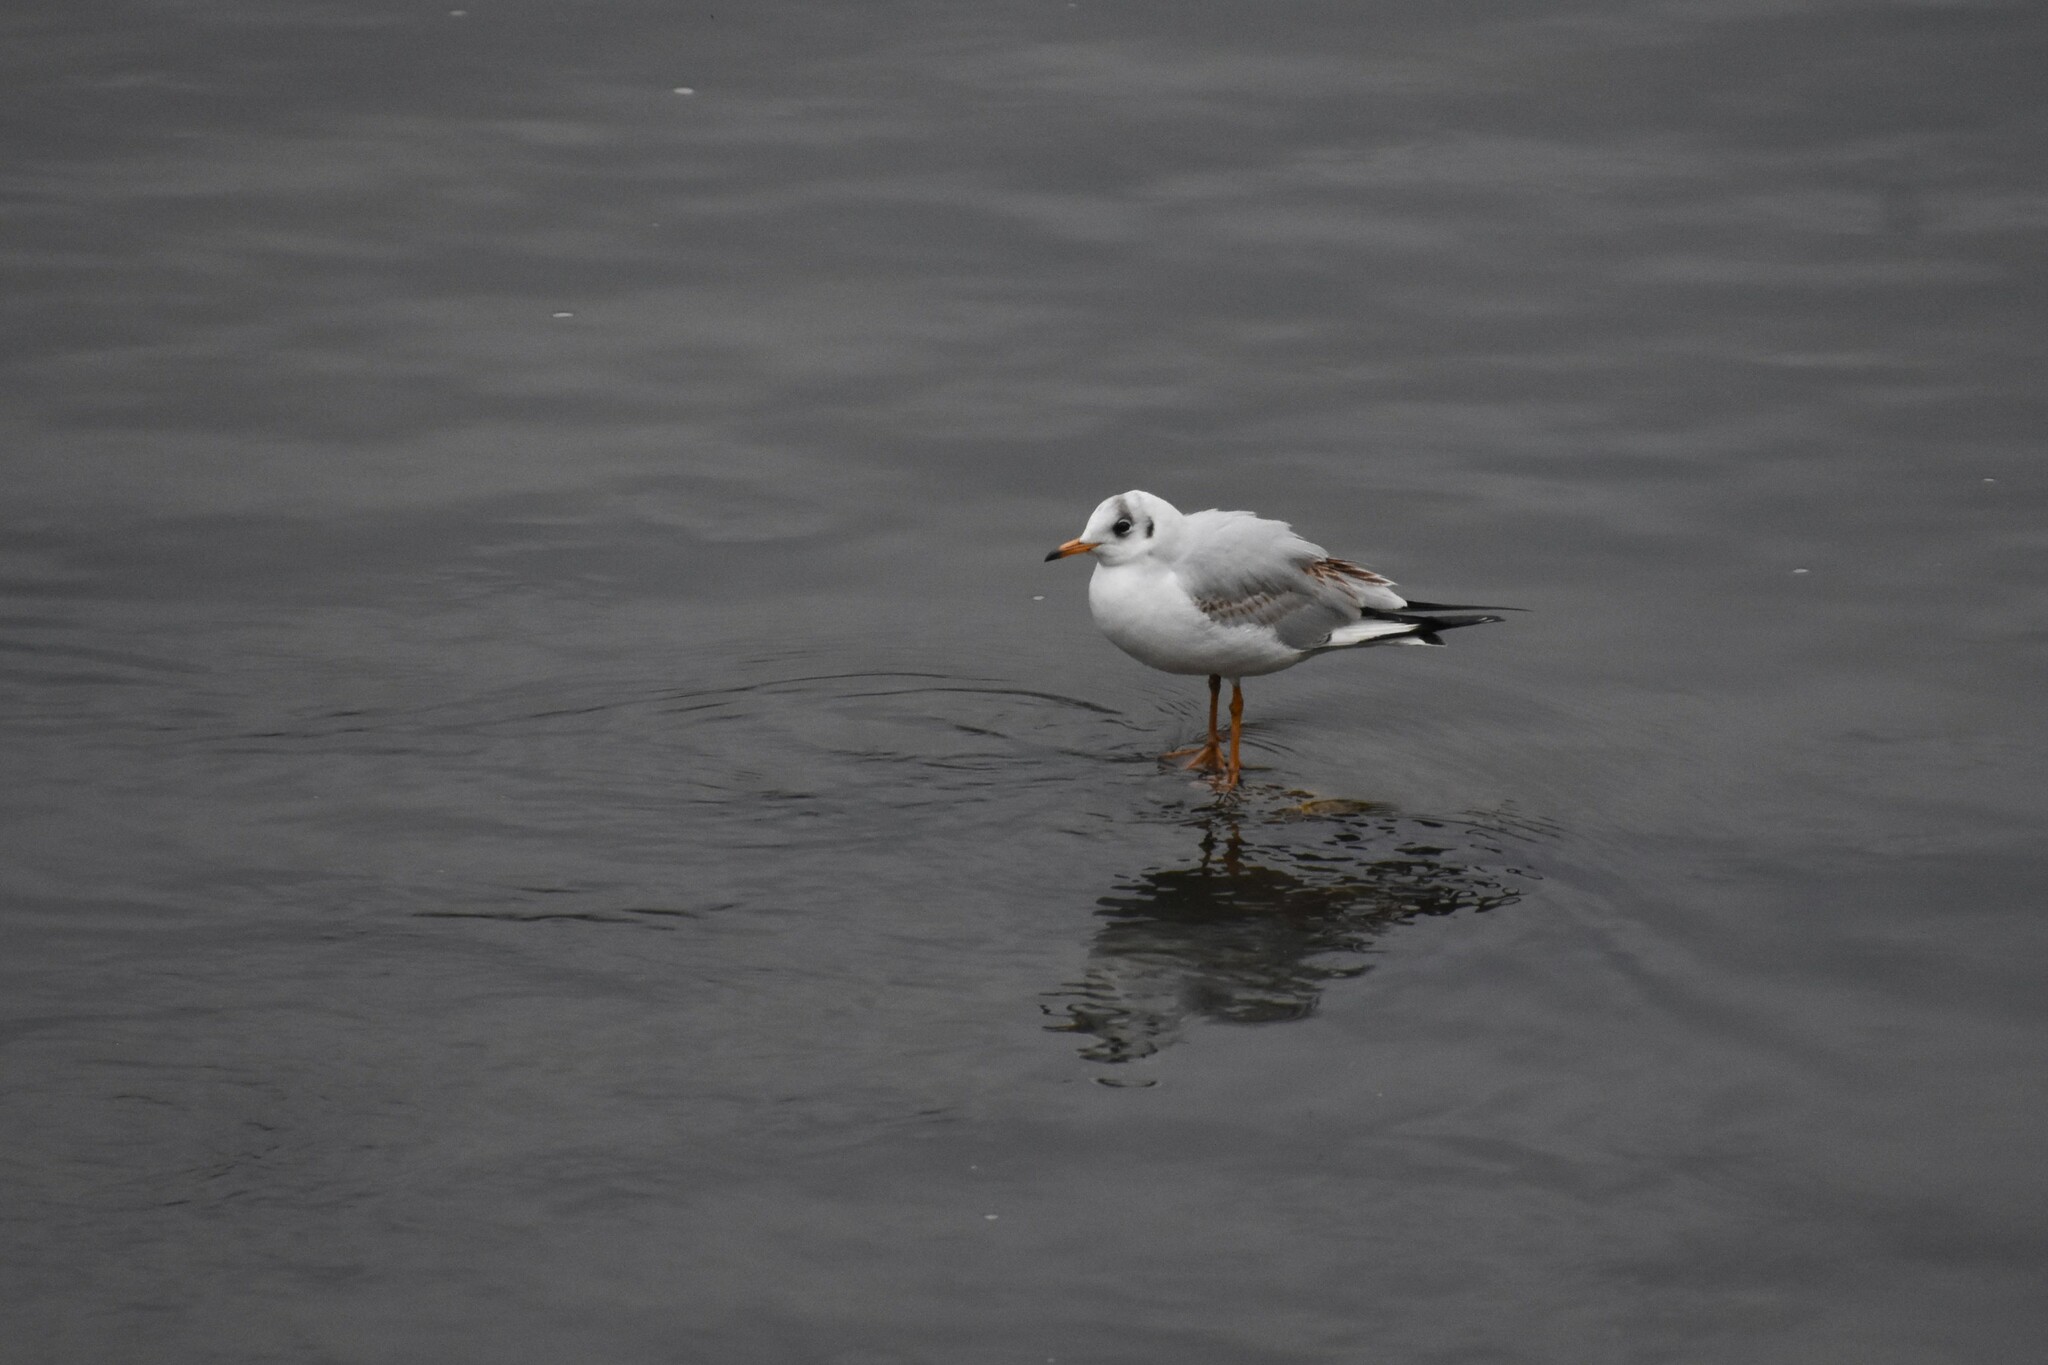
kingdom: Animalia
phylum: Chordata
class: Aves
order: Charadriiformes
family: Laridae
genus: Chroicocephalus
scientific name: Chroicocephalus ridibundus
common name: Black-headed gull
